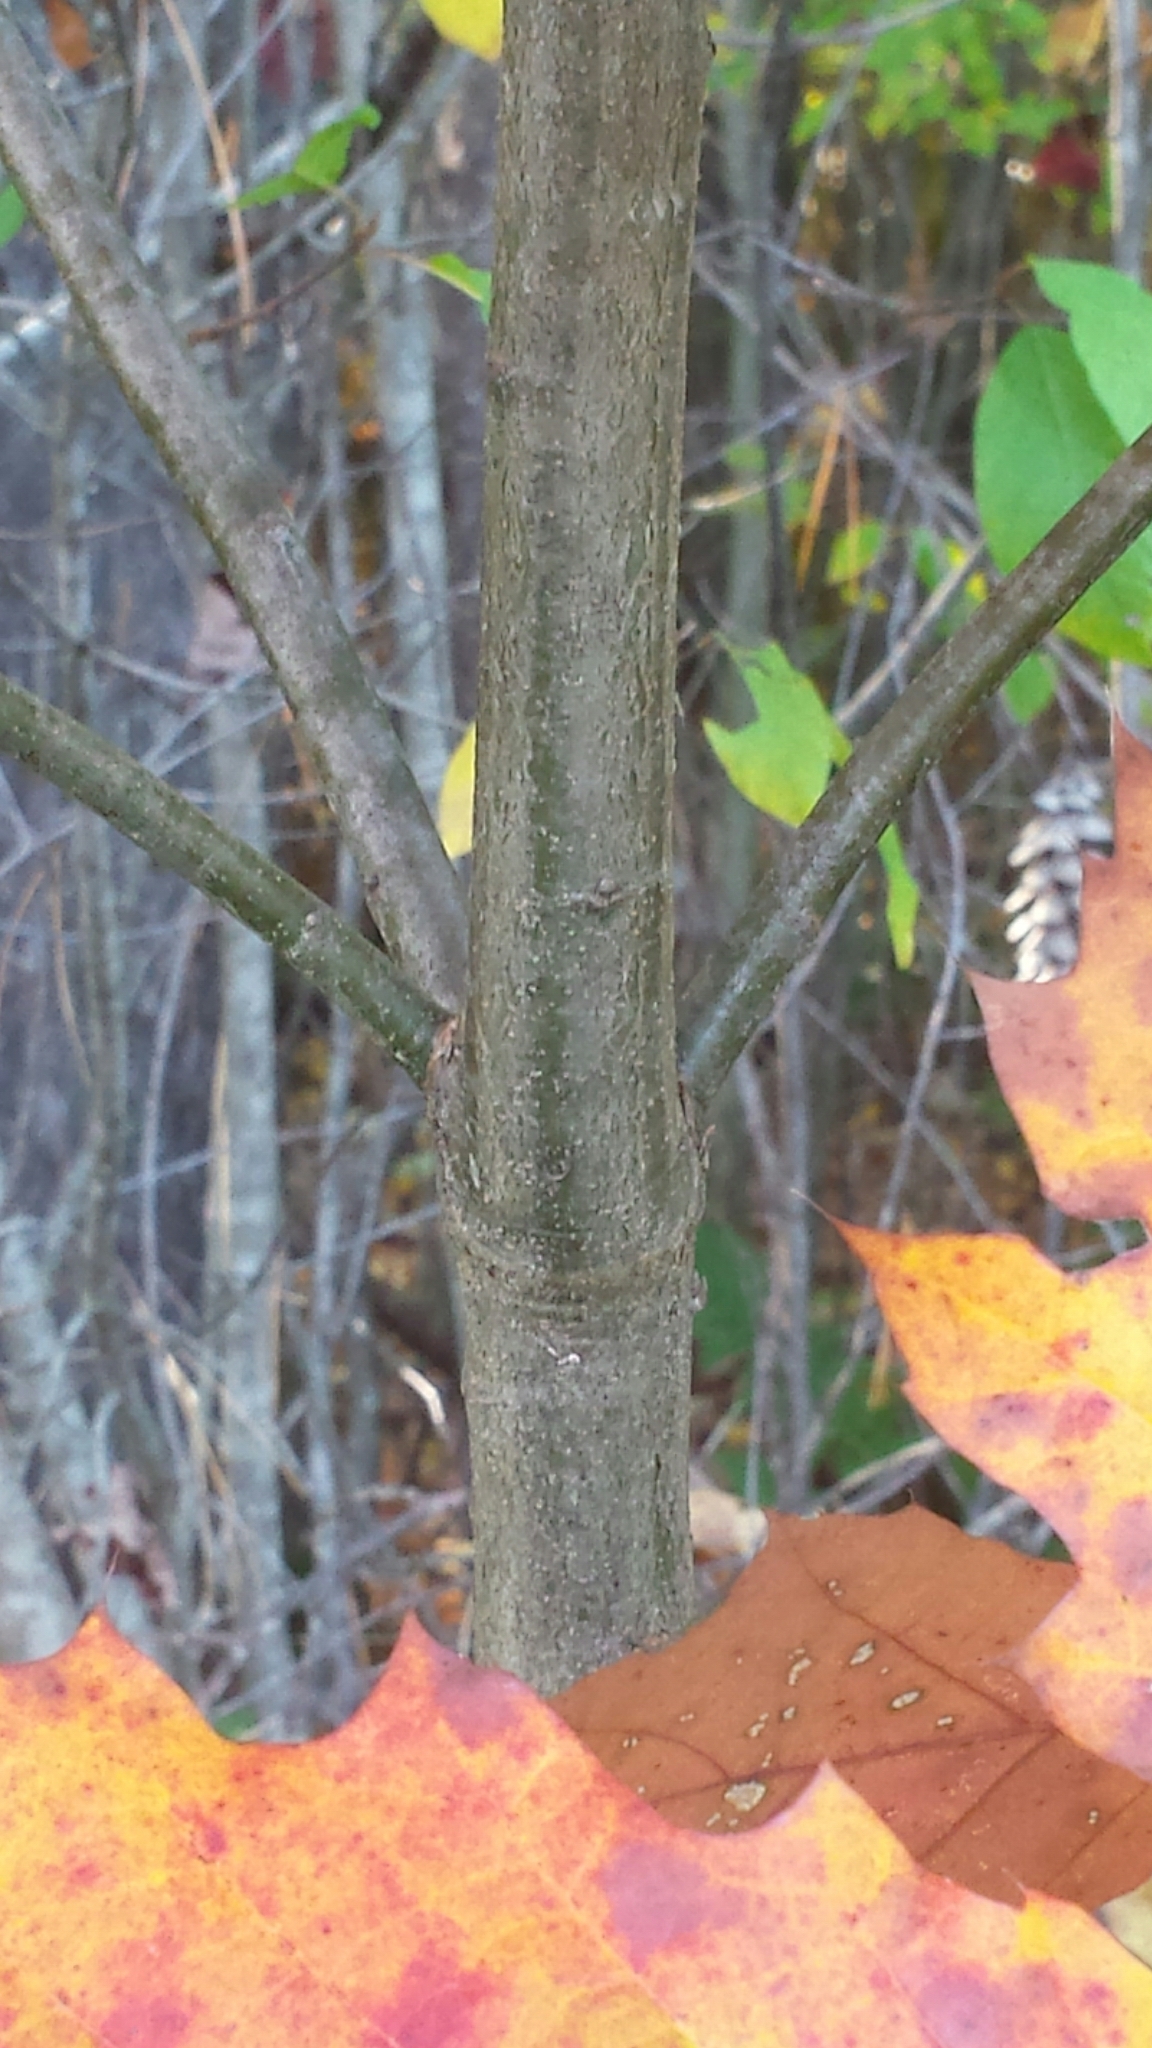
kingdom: Plantae
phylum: Tracheophyta
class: Magnoliopsida
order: Fagales
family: Fagaceae
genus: Quercus
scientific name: Quercus rubra
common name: Red oak
